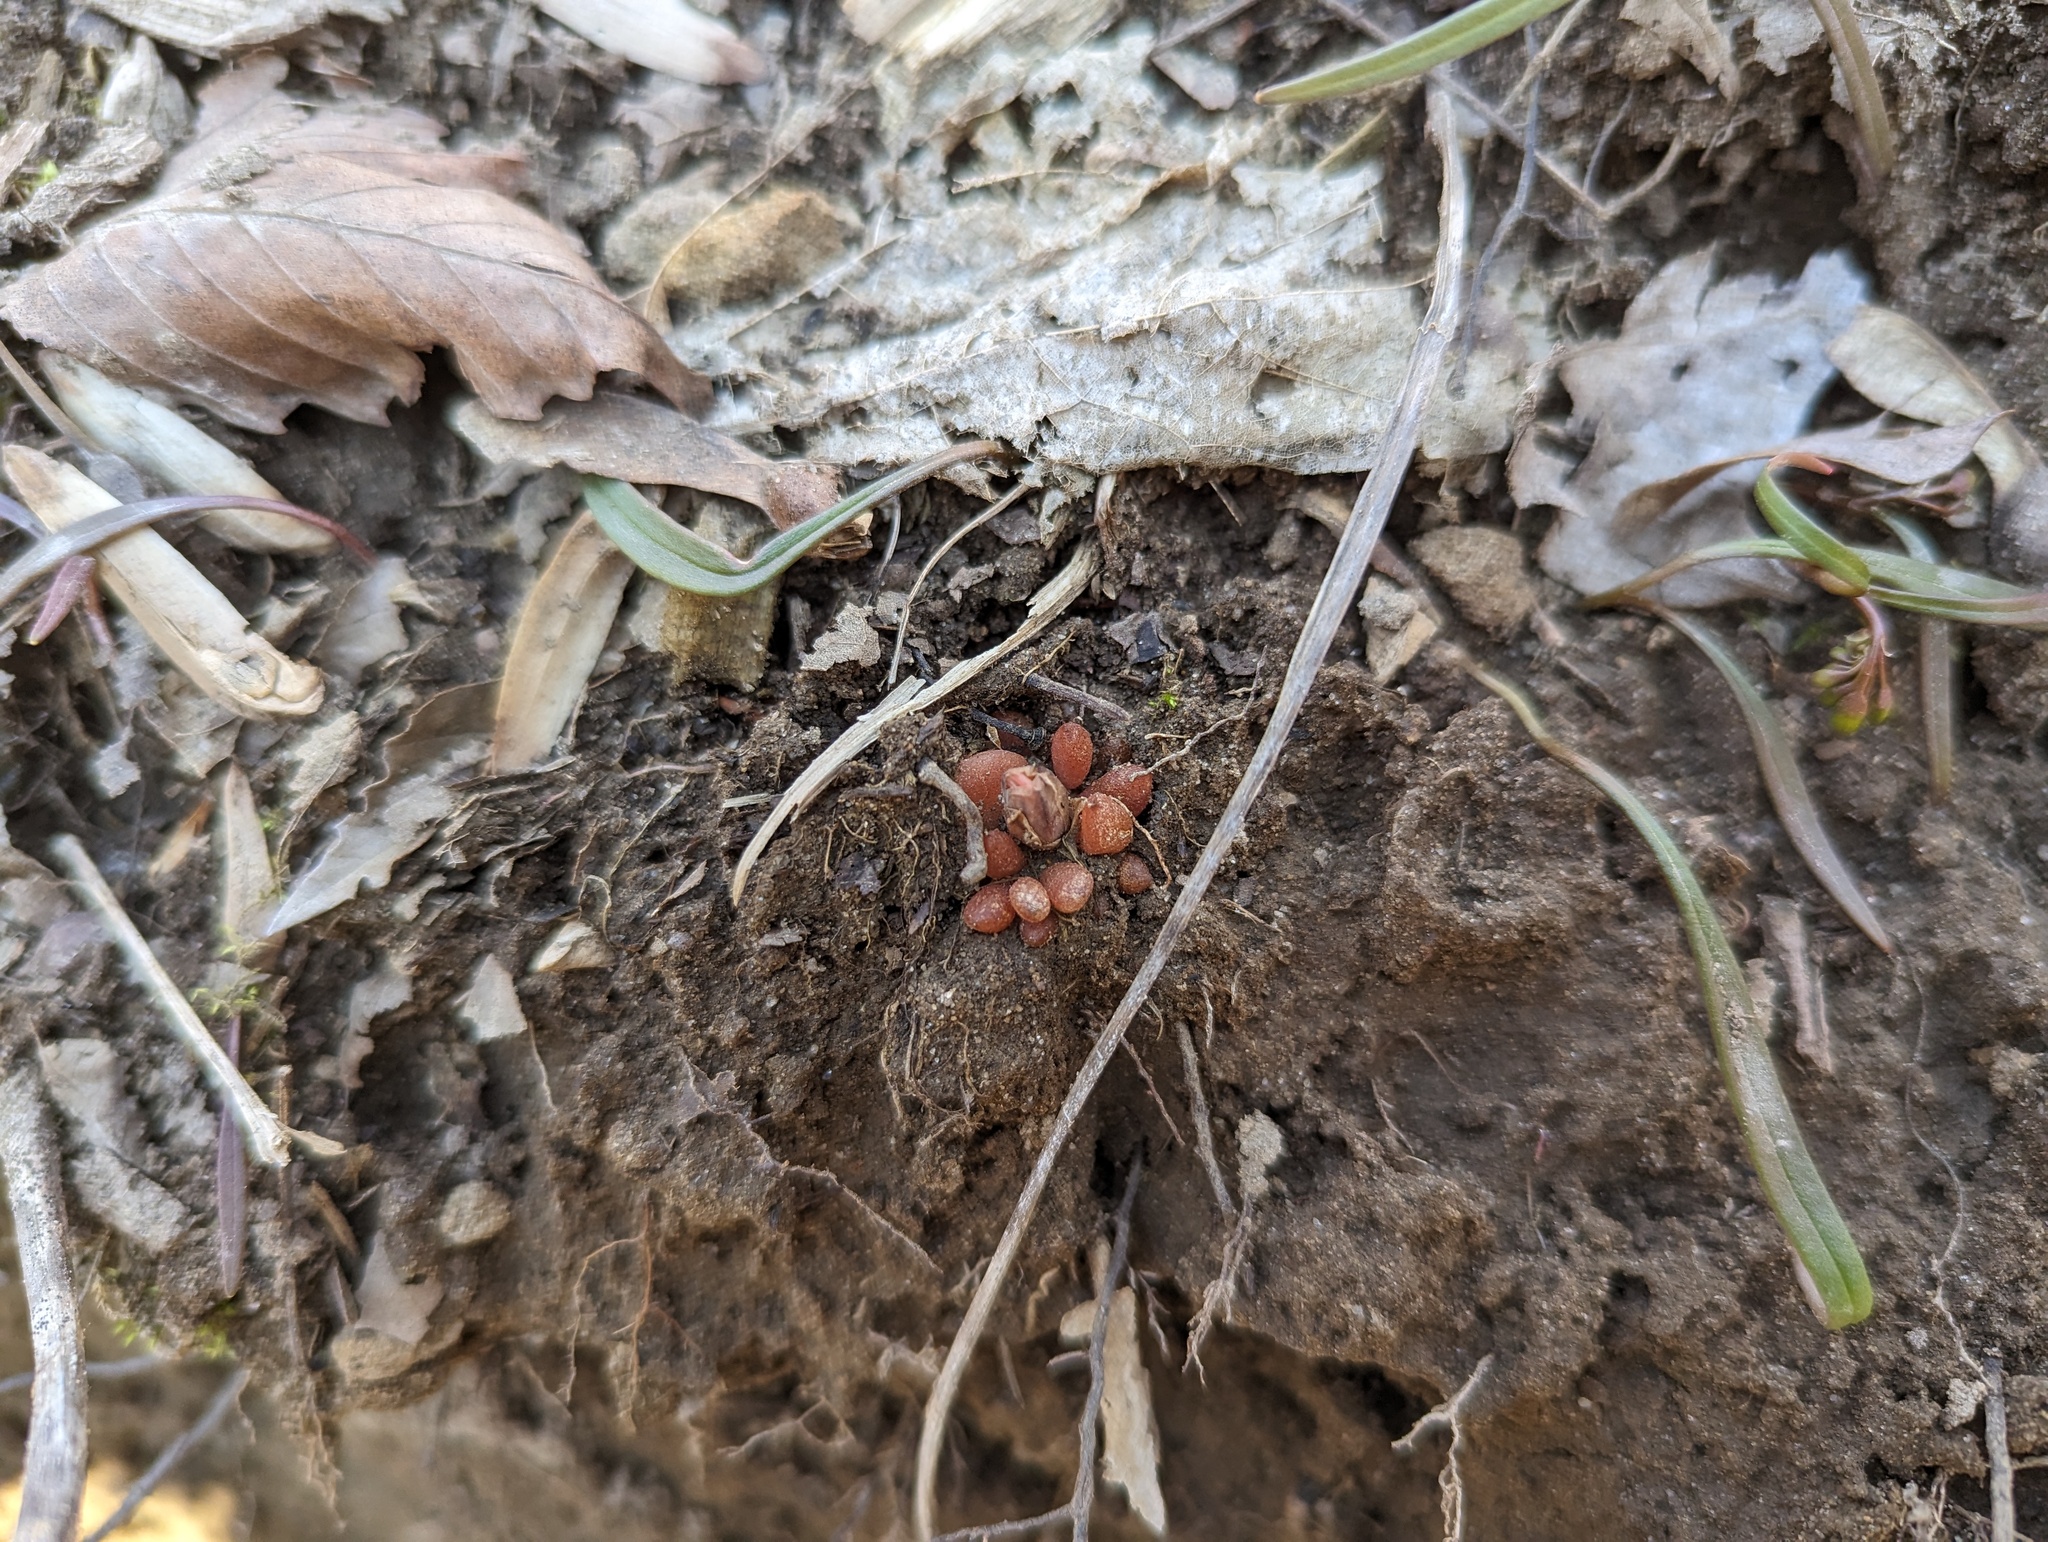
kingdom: Plantae
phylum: Tracheophyta
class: Magnoliopsida
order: Ranunculales
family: Papaveraceae
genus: Dicentra
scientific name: Dicentra cucullaria
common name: Dutchman's breeches
